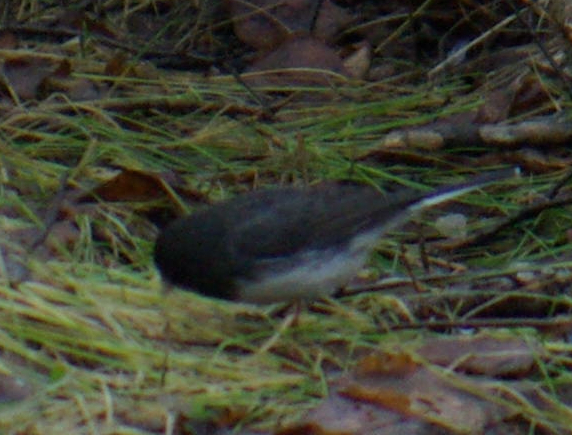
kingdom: Animalia
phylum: Chordata
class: Aves
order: Passeriformes
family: Passerellidae
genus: Junco
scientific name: Junco hyemalis
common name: Dark-eyed junco
